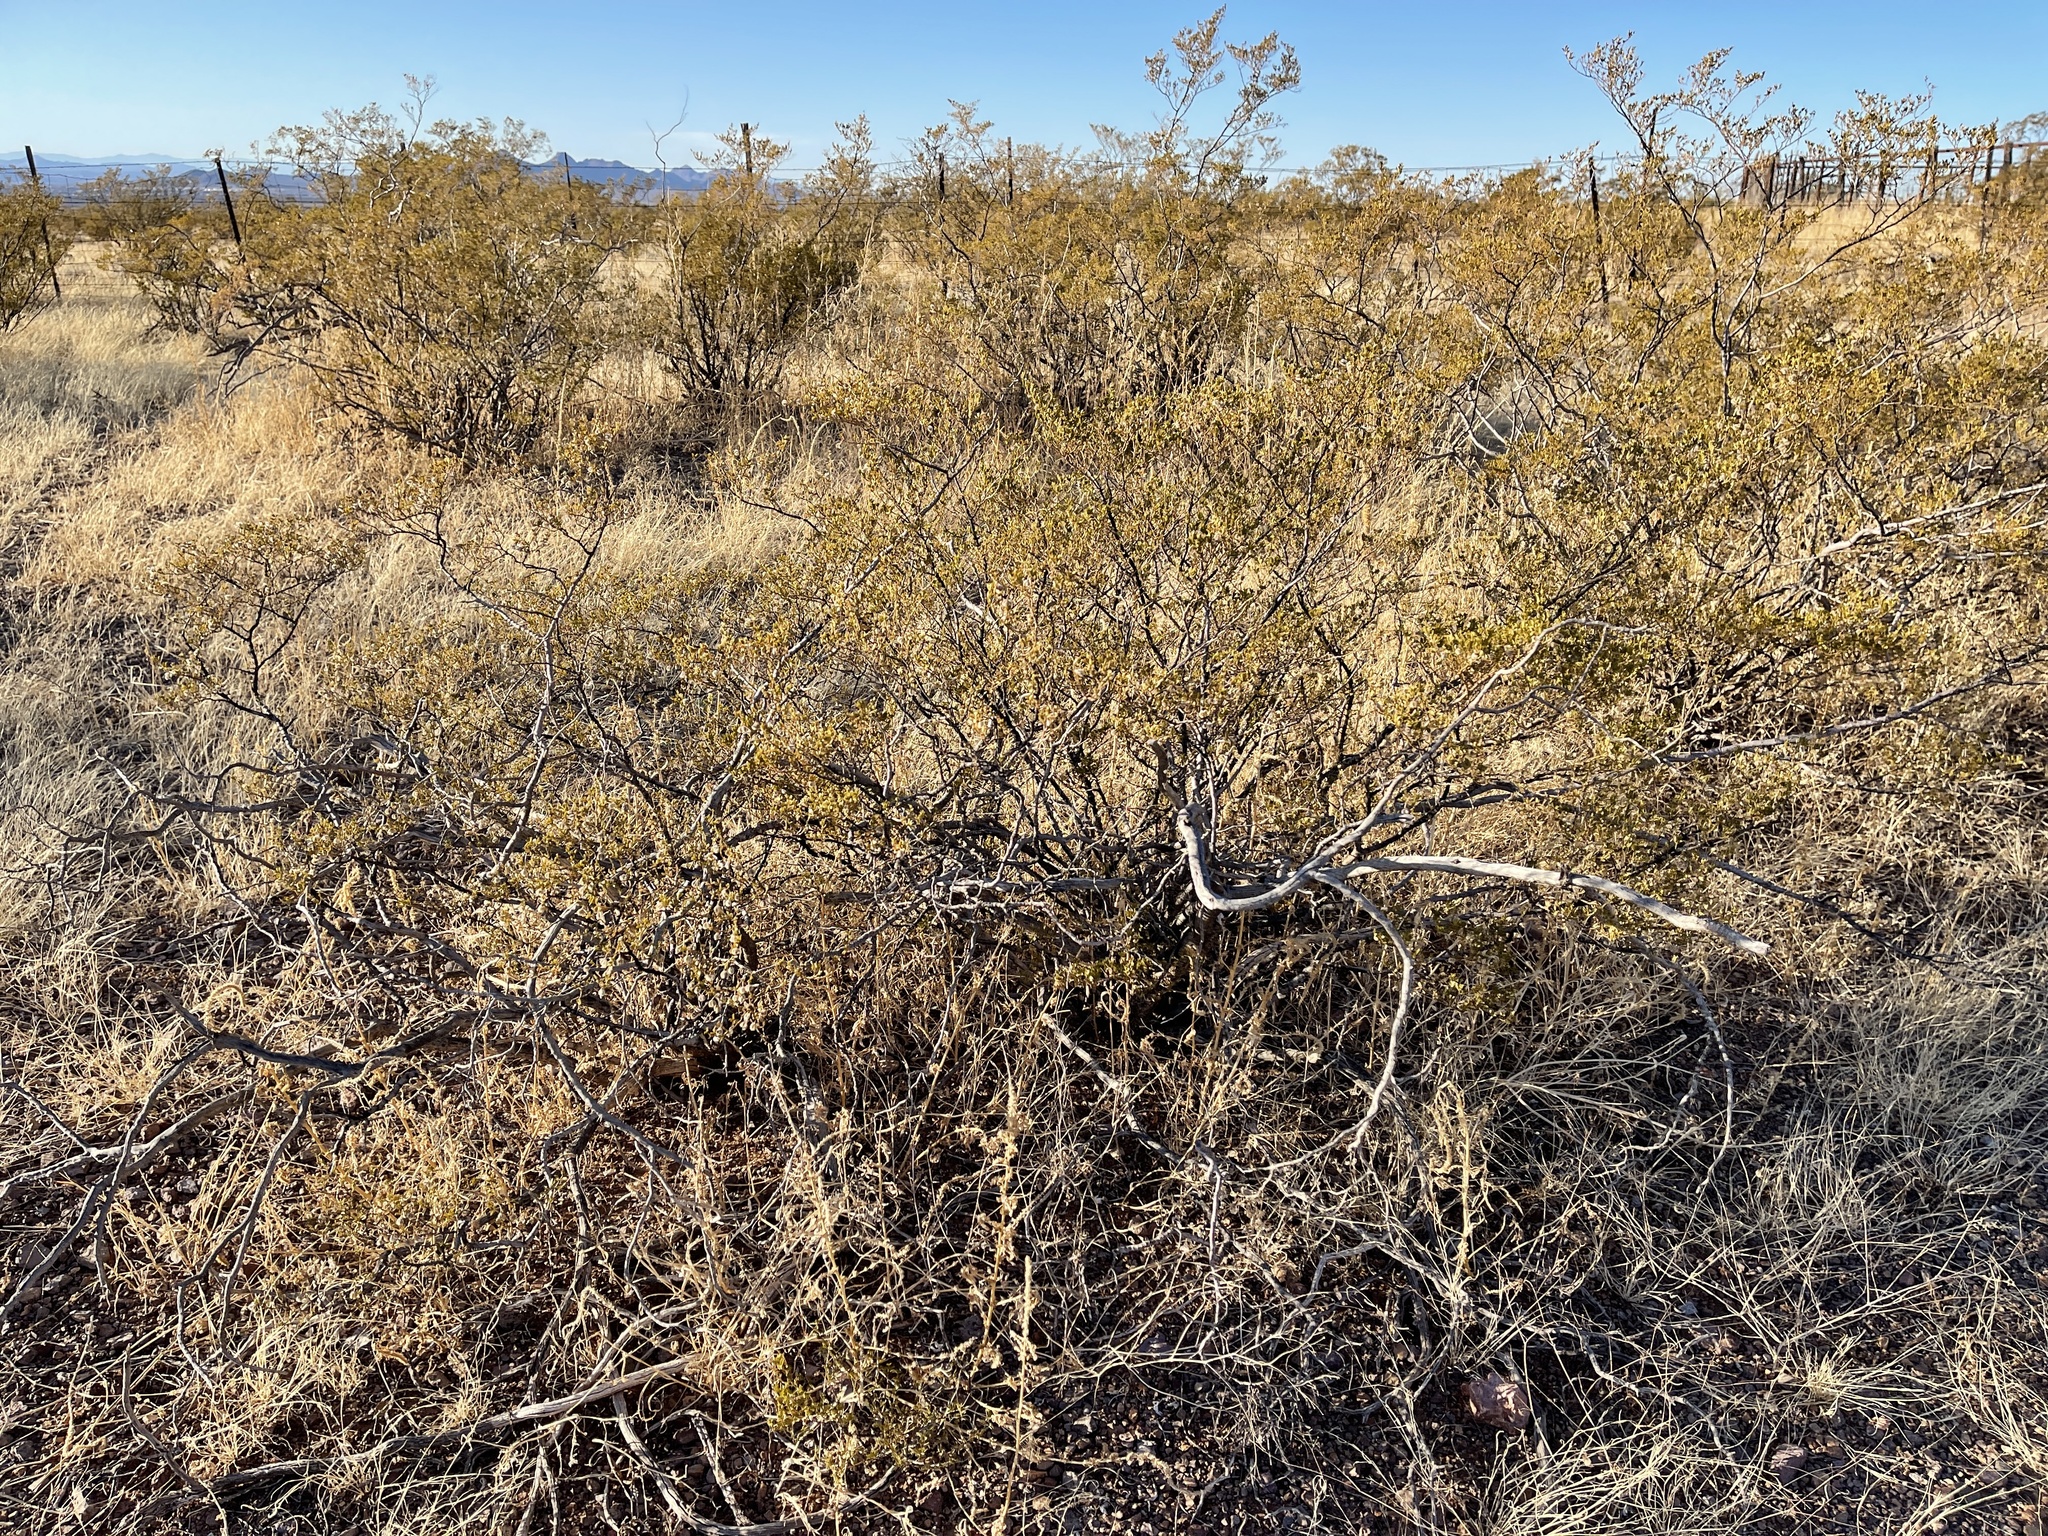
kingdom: Plantae
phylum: Tracheophyta
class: Magnoliopsida
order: Zygophyllales
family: Zygophyllaceae
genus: Larrea
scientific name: Larrea tridentata
